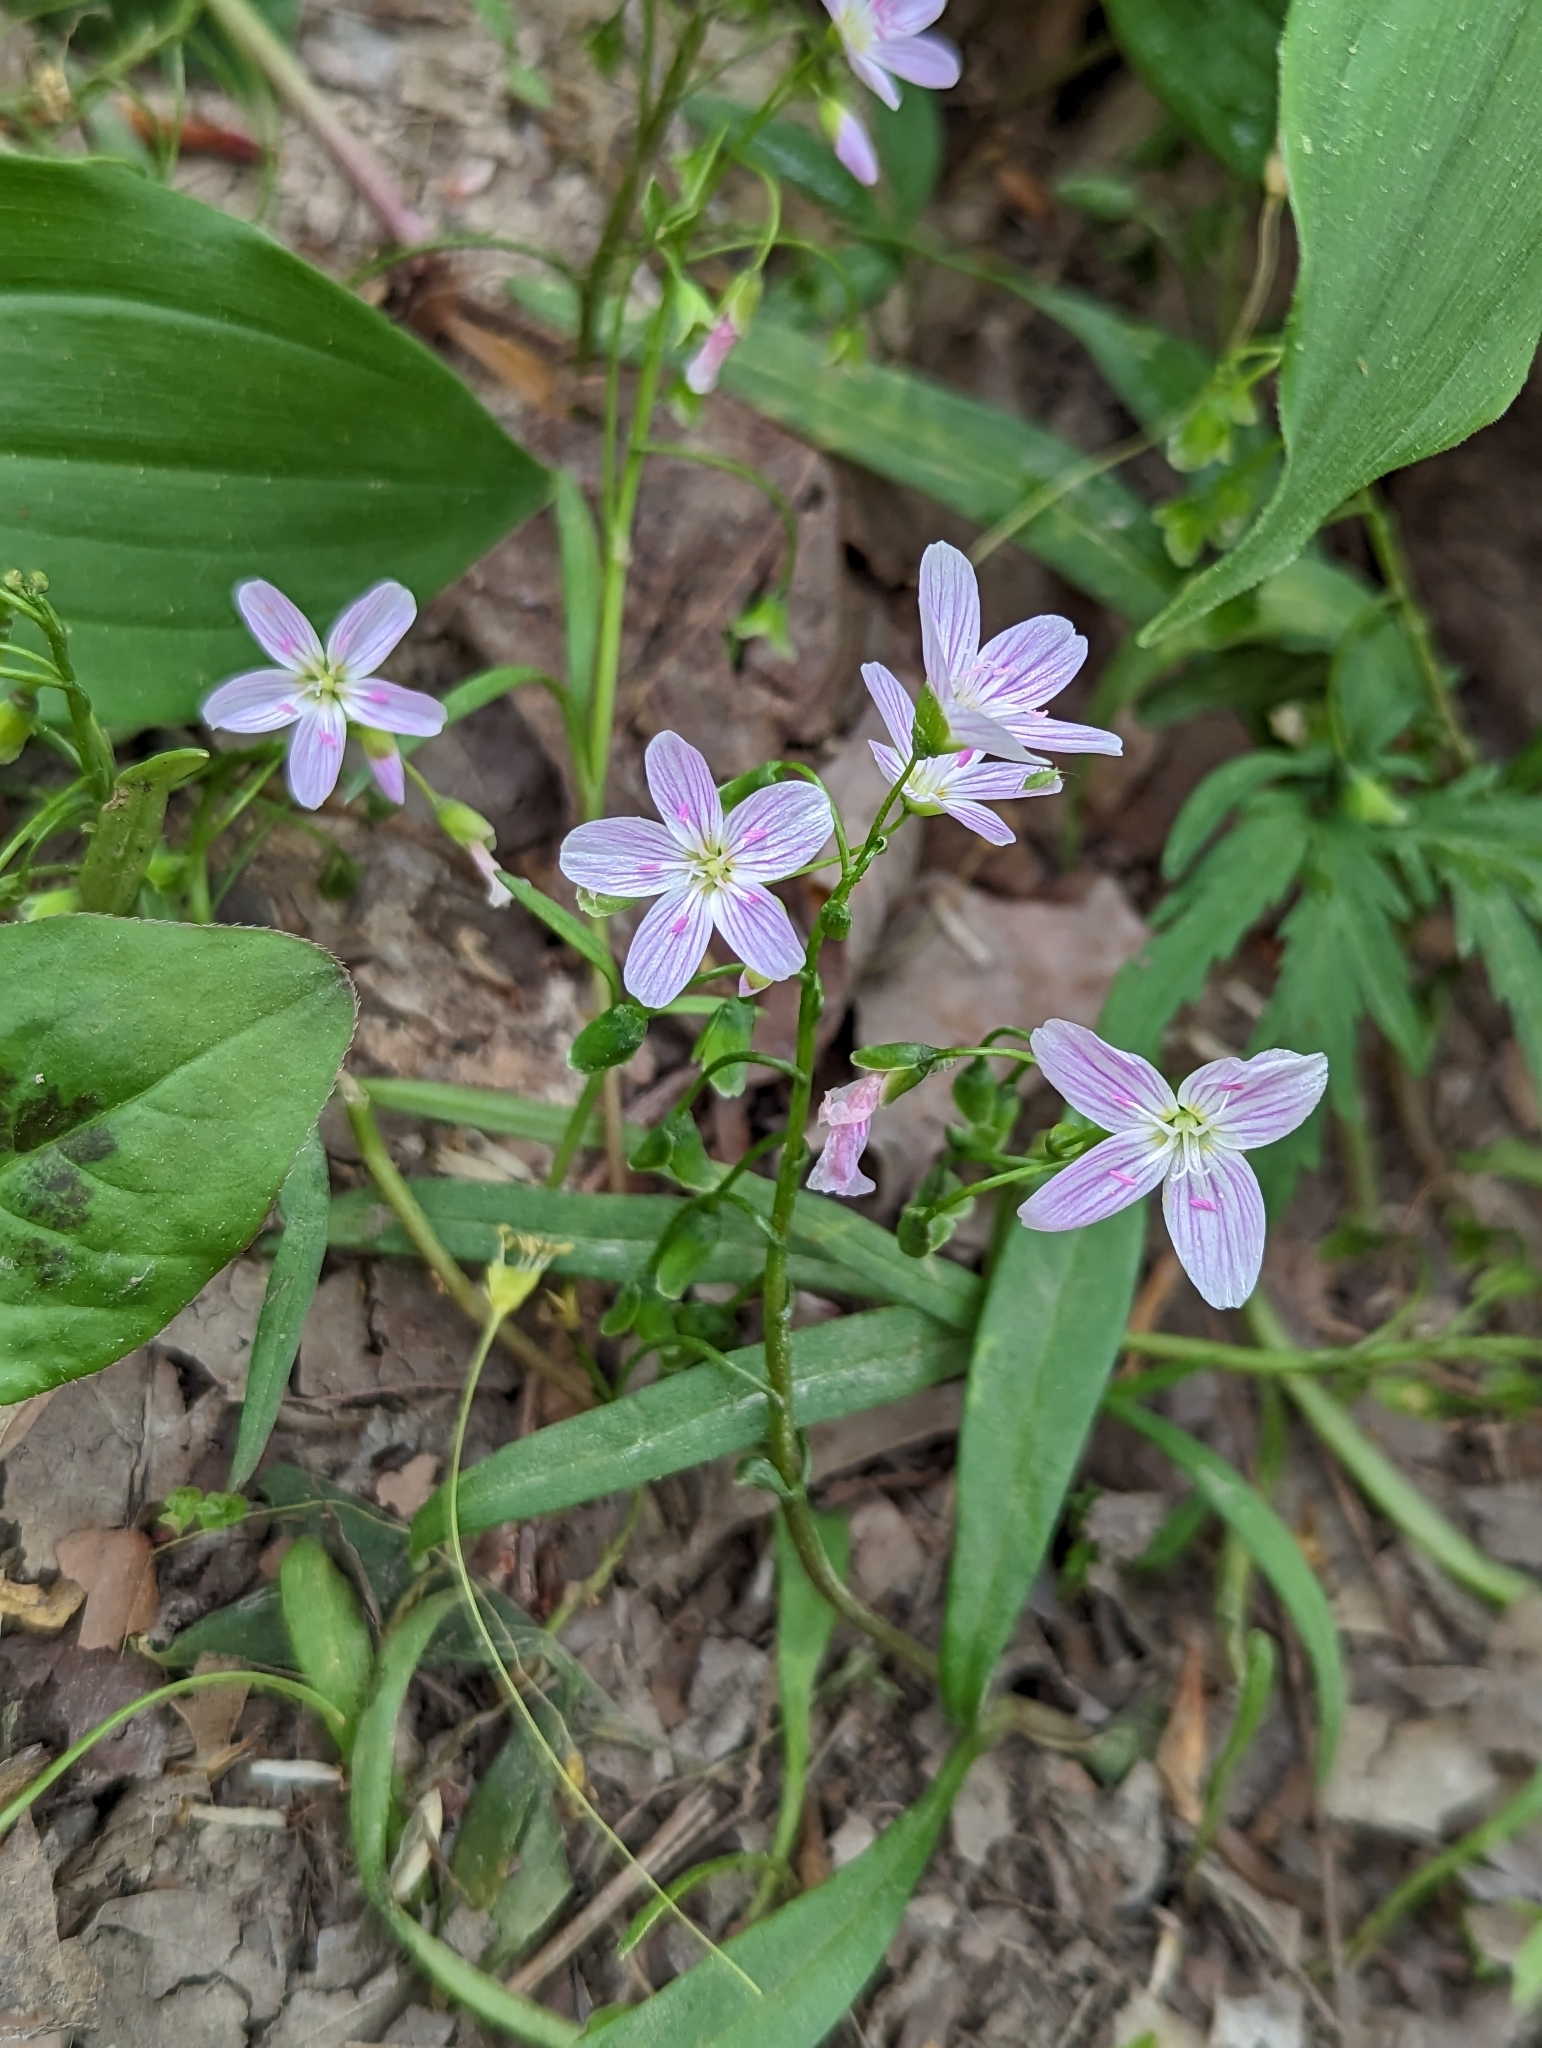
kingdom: Plantae
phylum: Tracheophyta
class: Magnoliopsida
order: Caryophyllales
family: Montiaceae
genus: Claytonia
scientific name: Claytonia virginica
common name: Virginia springbeauty
